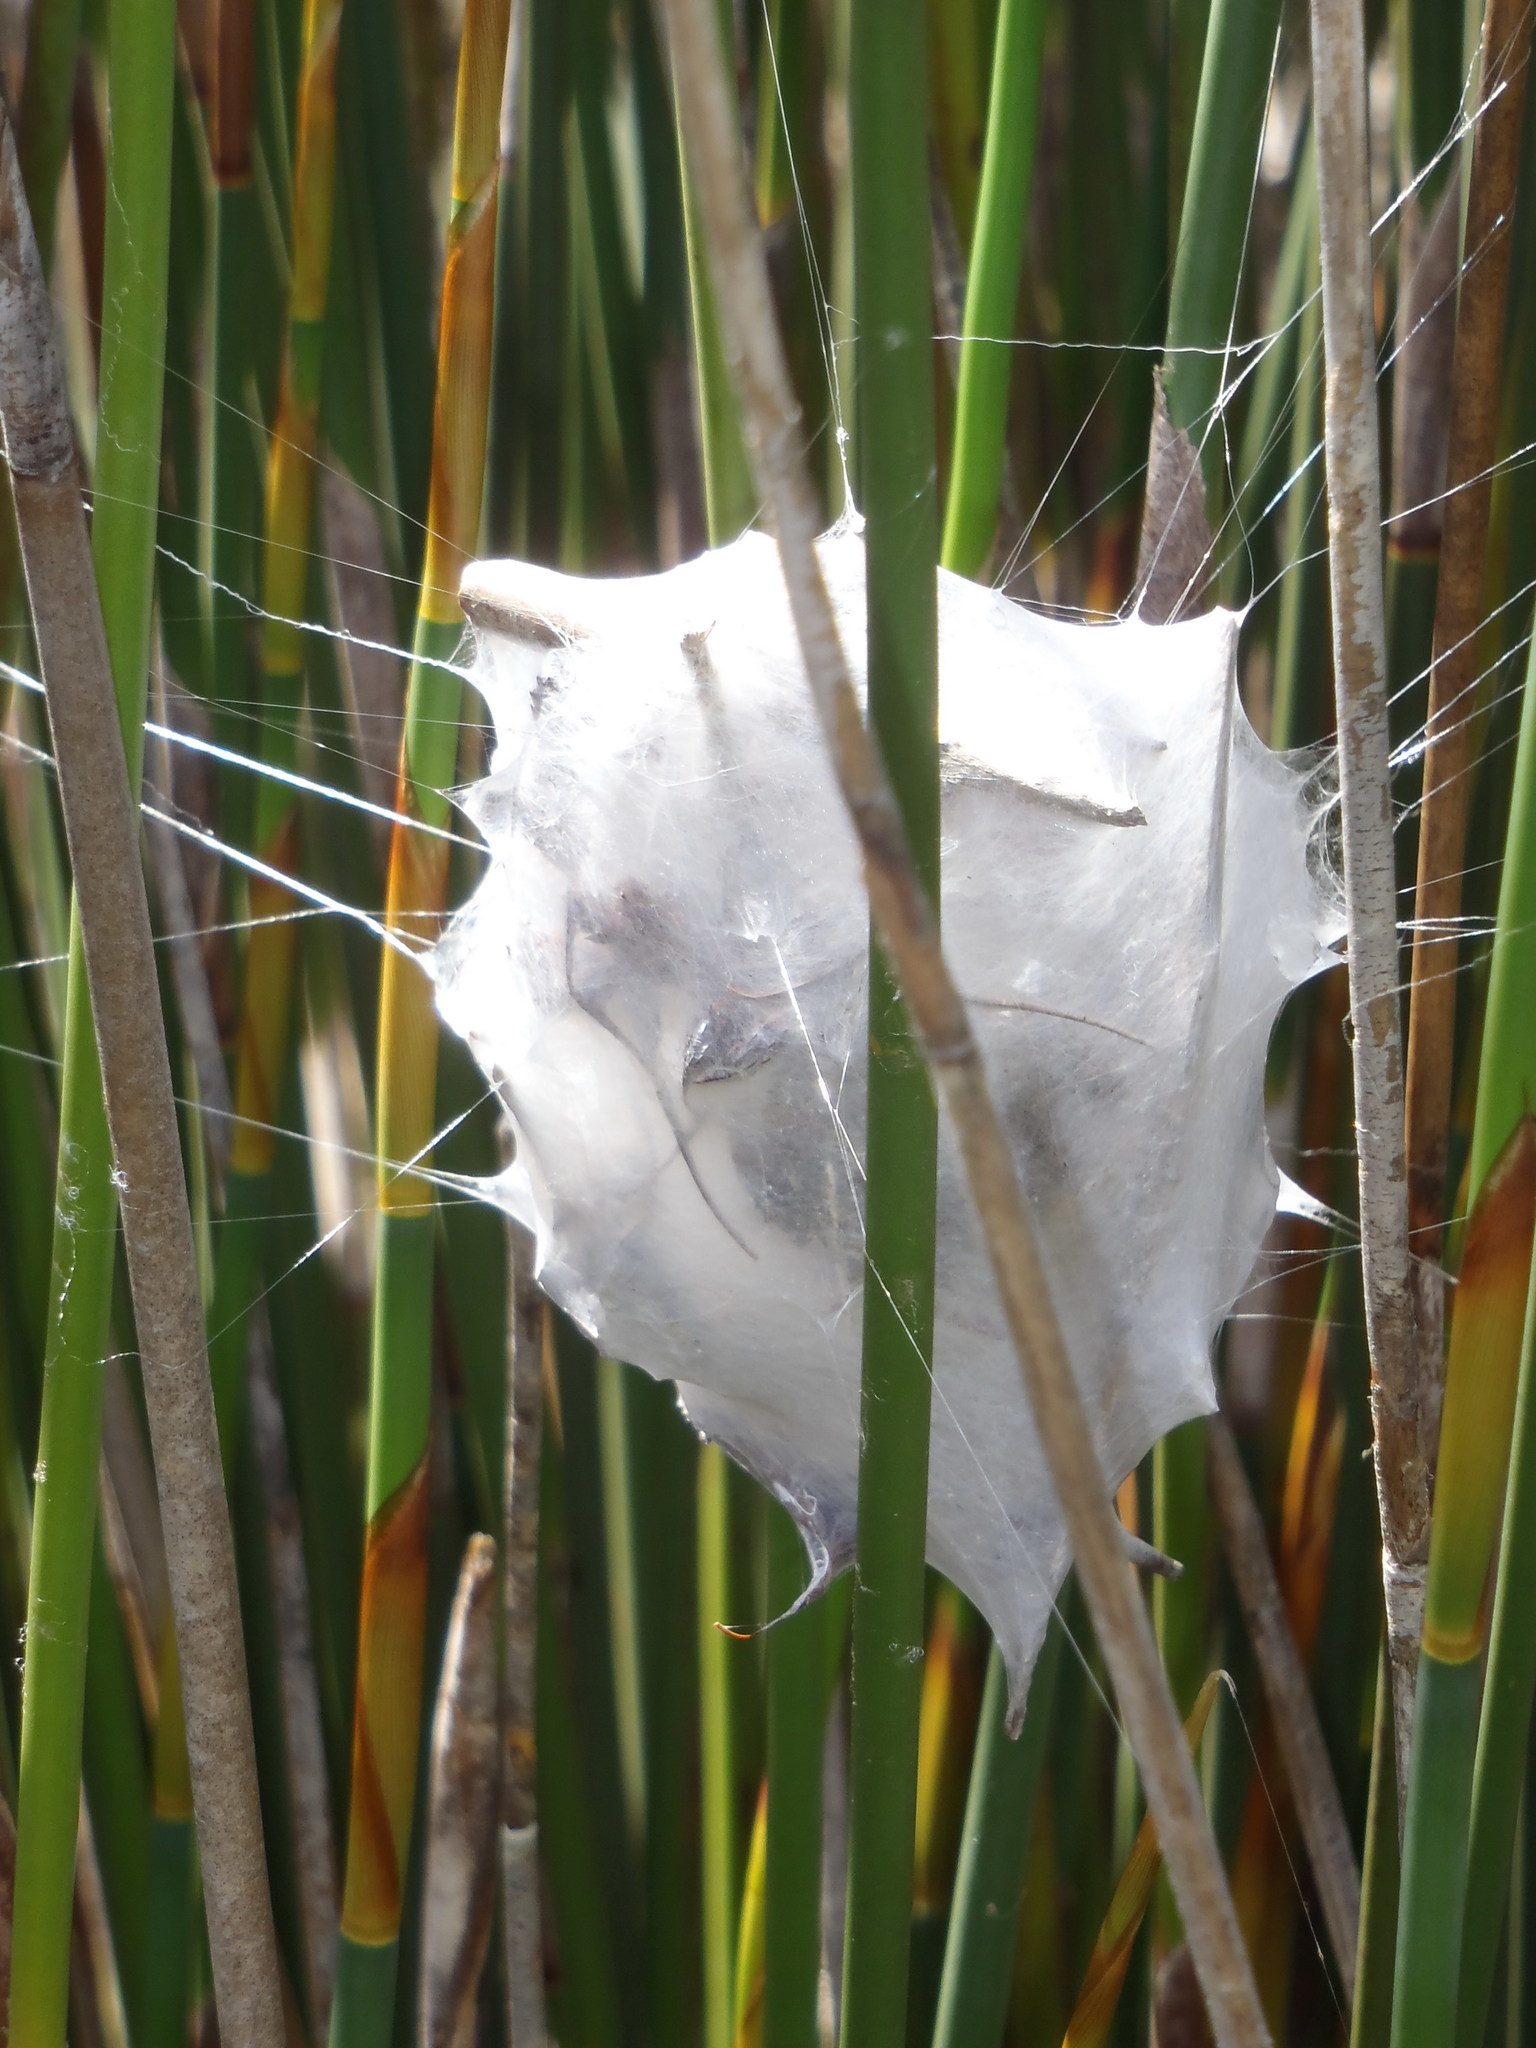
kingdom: Animalia
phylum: Arthropoda
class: Arachnida
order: Araneae
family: Sparassidae
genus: Palystes
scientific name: Palystes castaneus
